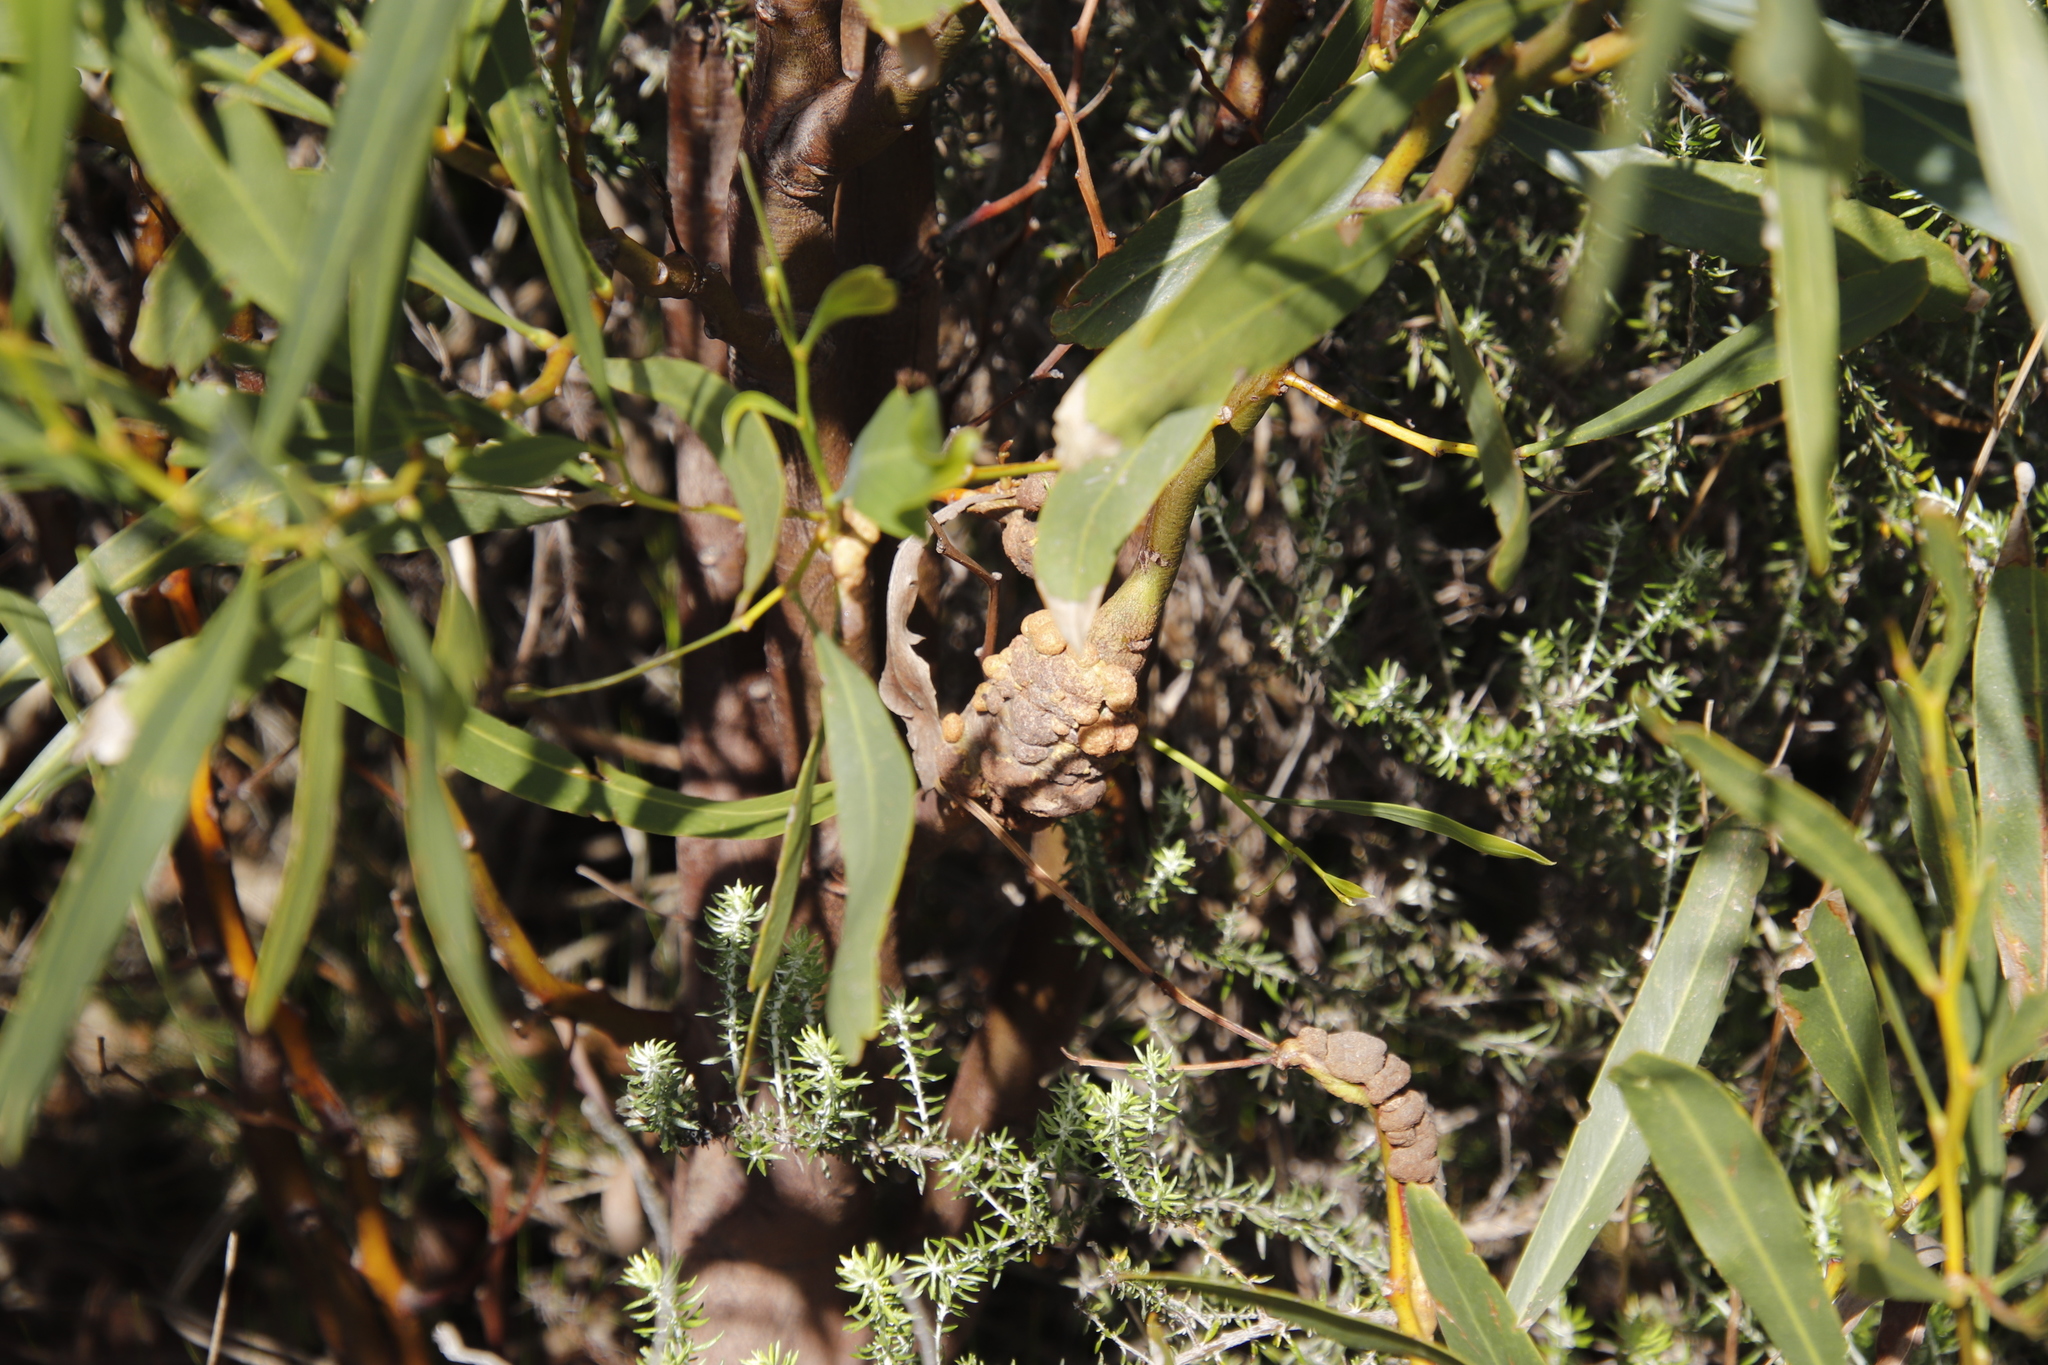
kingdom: Fungi
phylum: Basidiomycota
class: Pucciniomycetes
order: Pucciniales
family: Uromycladiaceae
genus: Uromycladium
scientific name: Uromycladium morrisii
